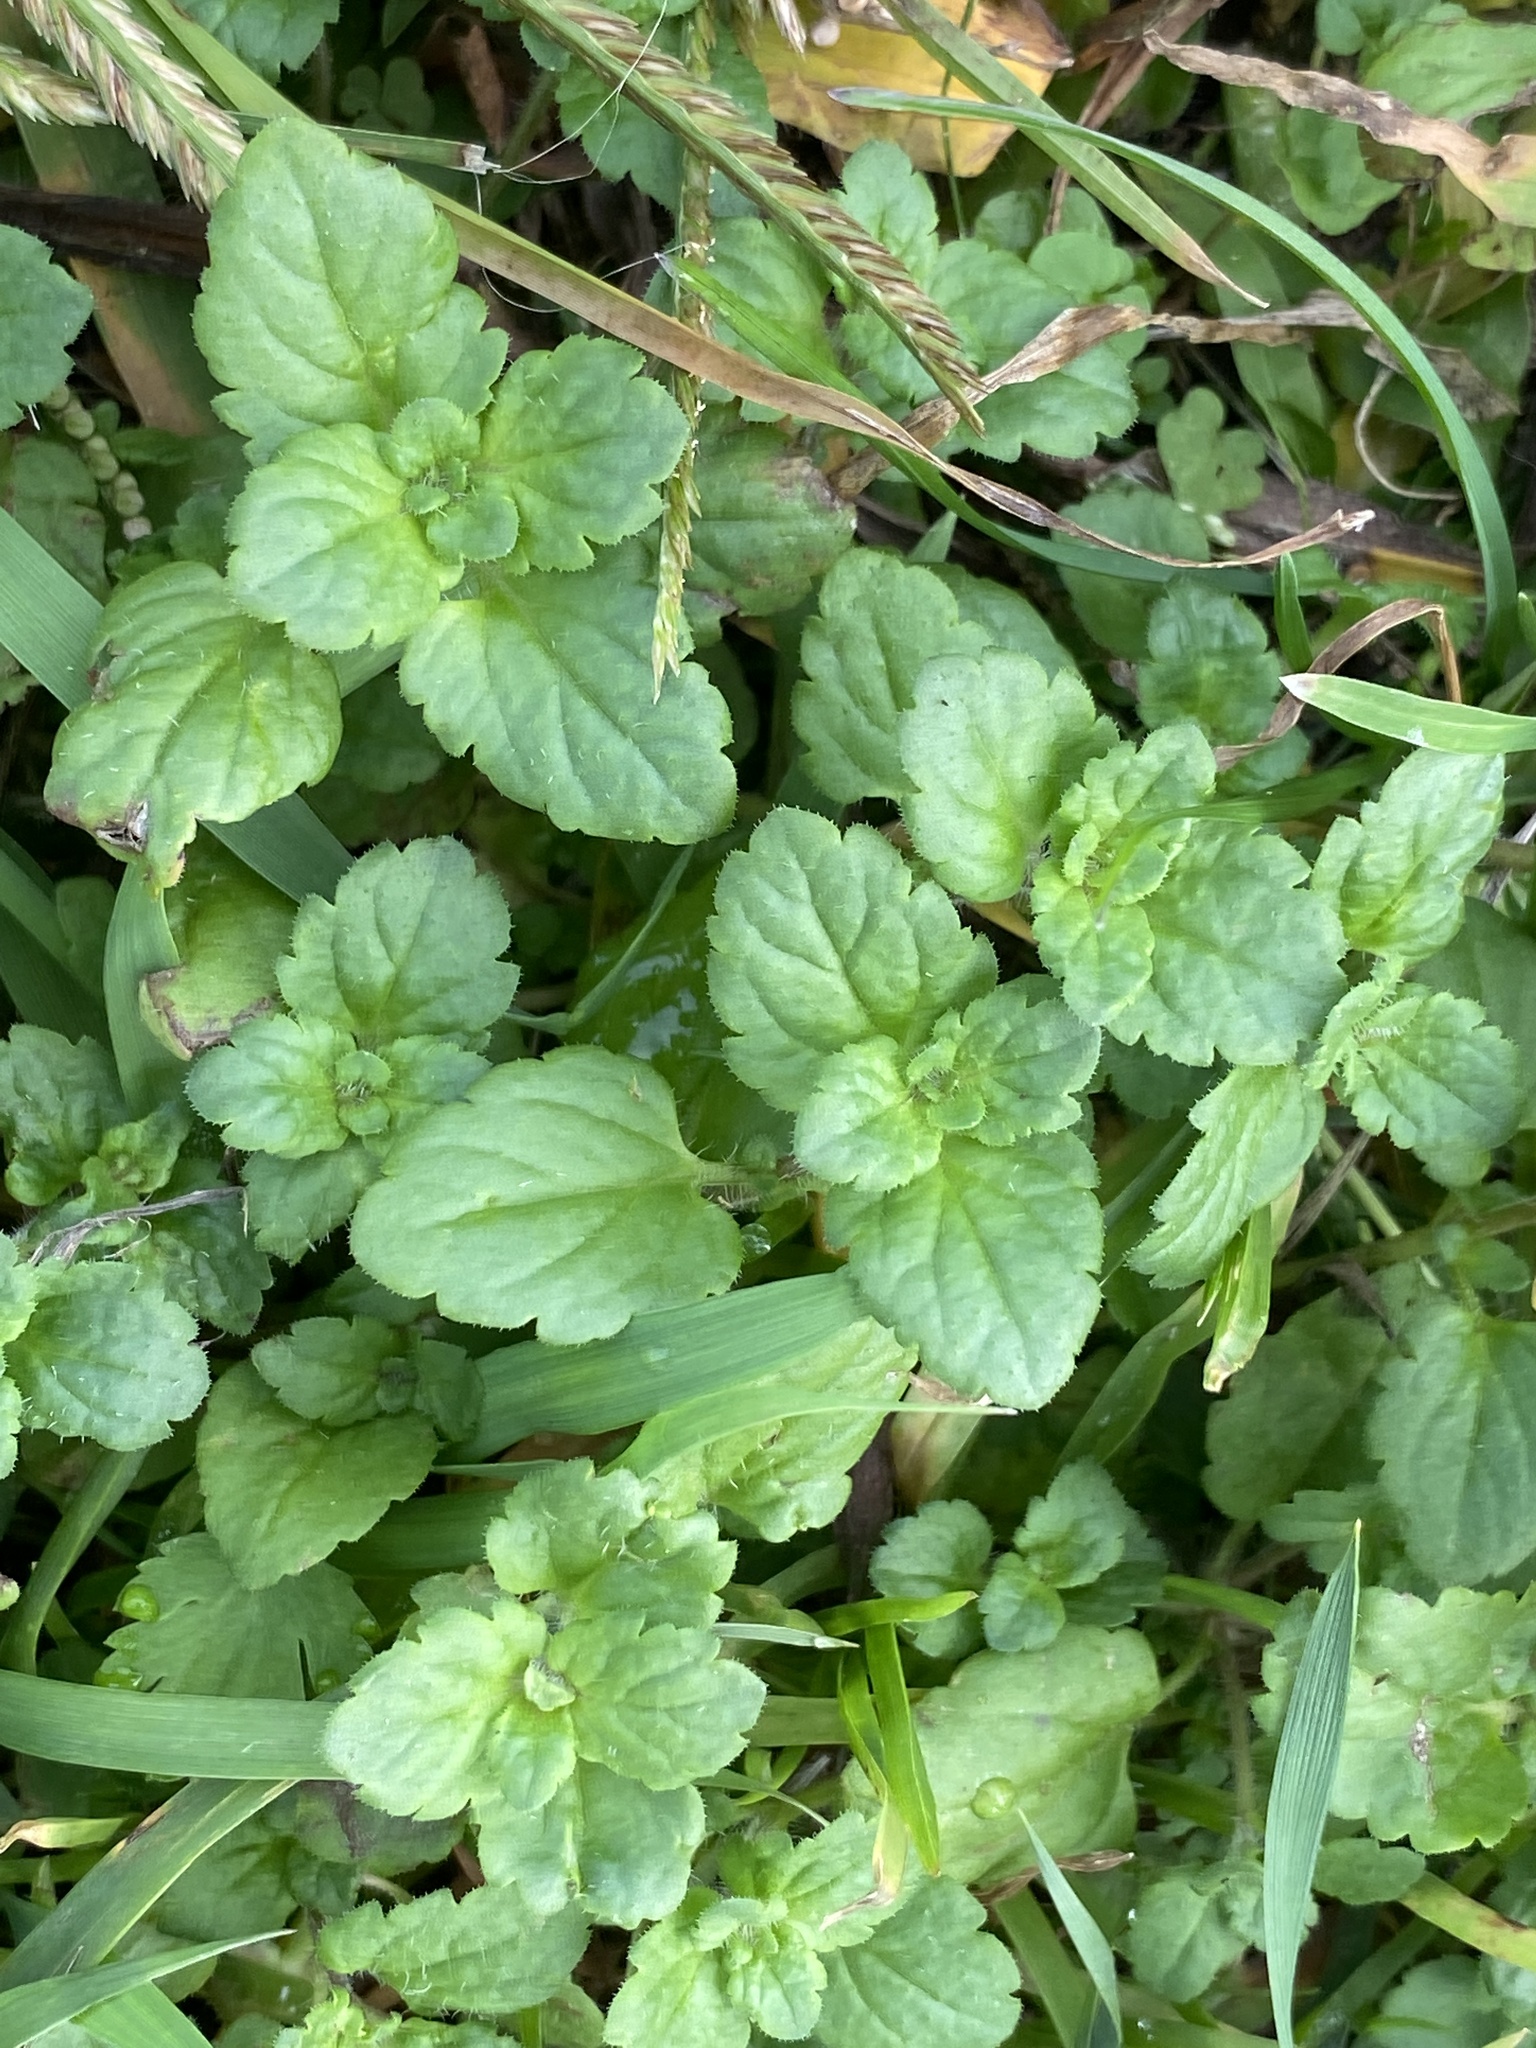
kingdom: Plantae
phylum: Tracheophyta
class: Magnoliopsida
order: Lamiales
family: Plantaginaceae
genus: Veronica
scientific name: Veronica persica
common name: Common field-speedwell
